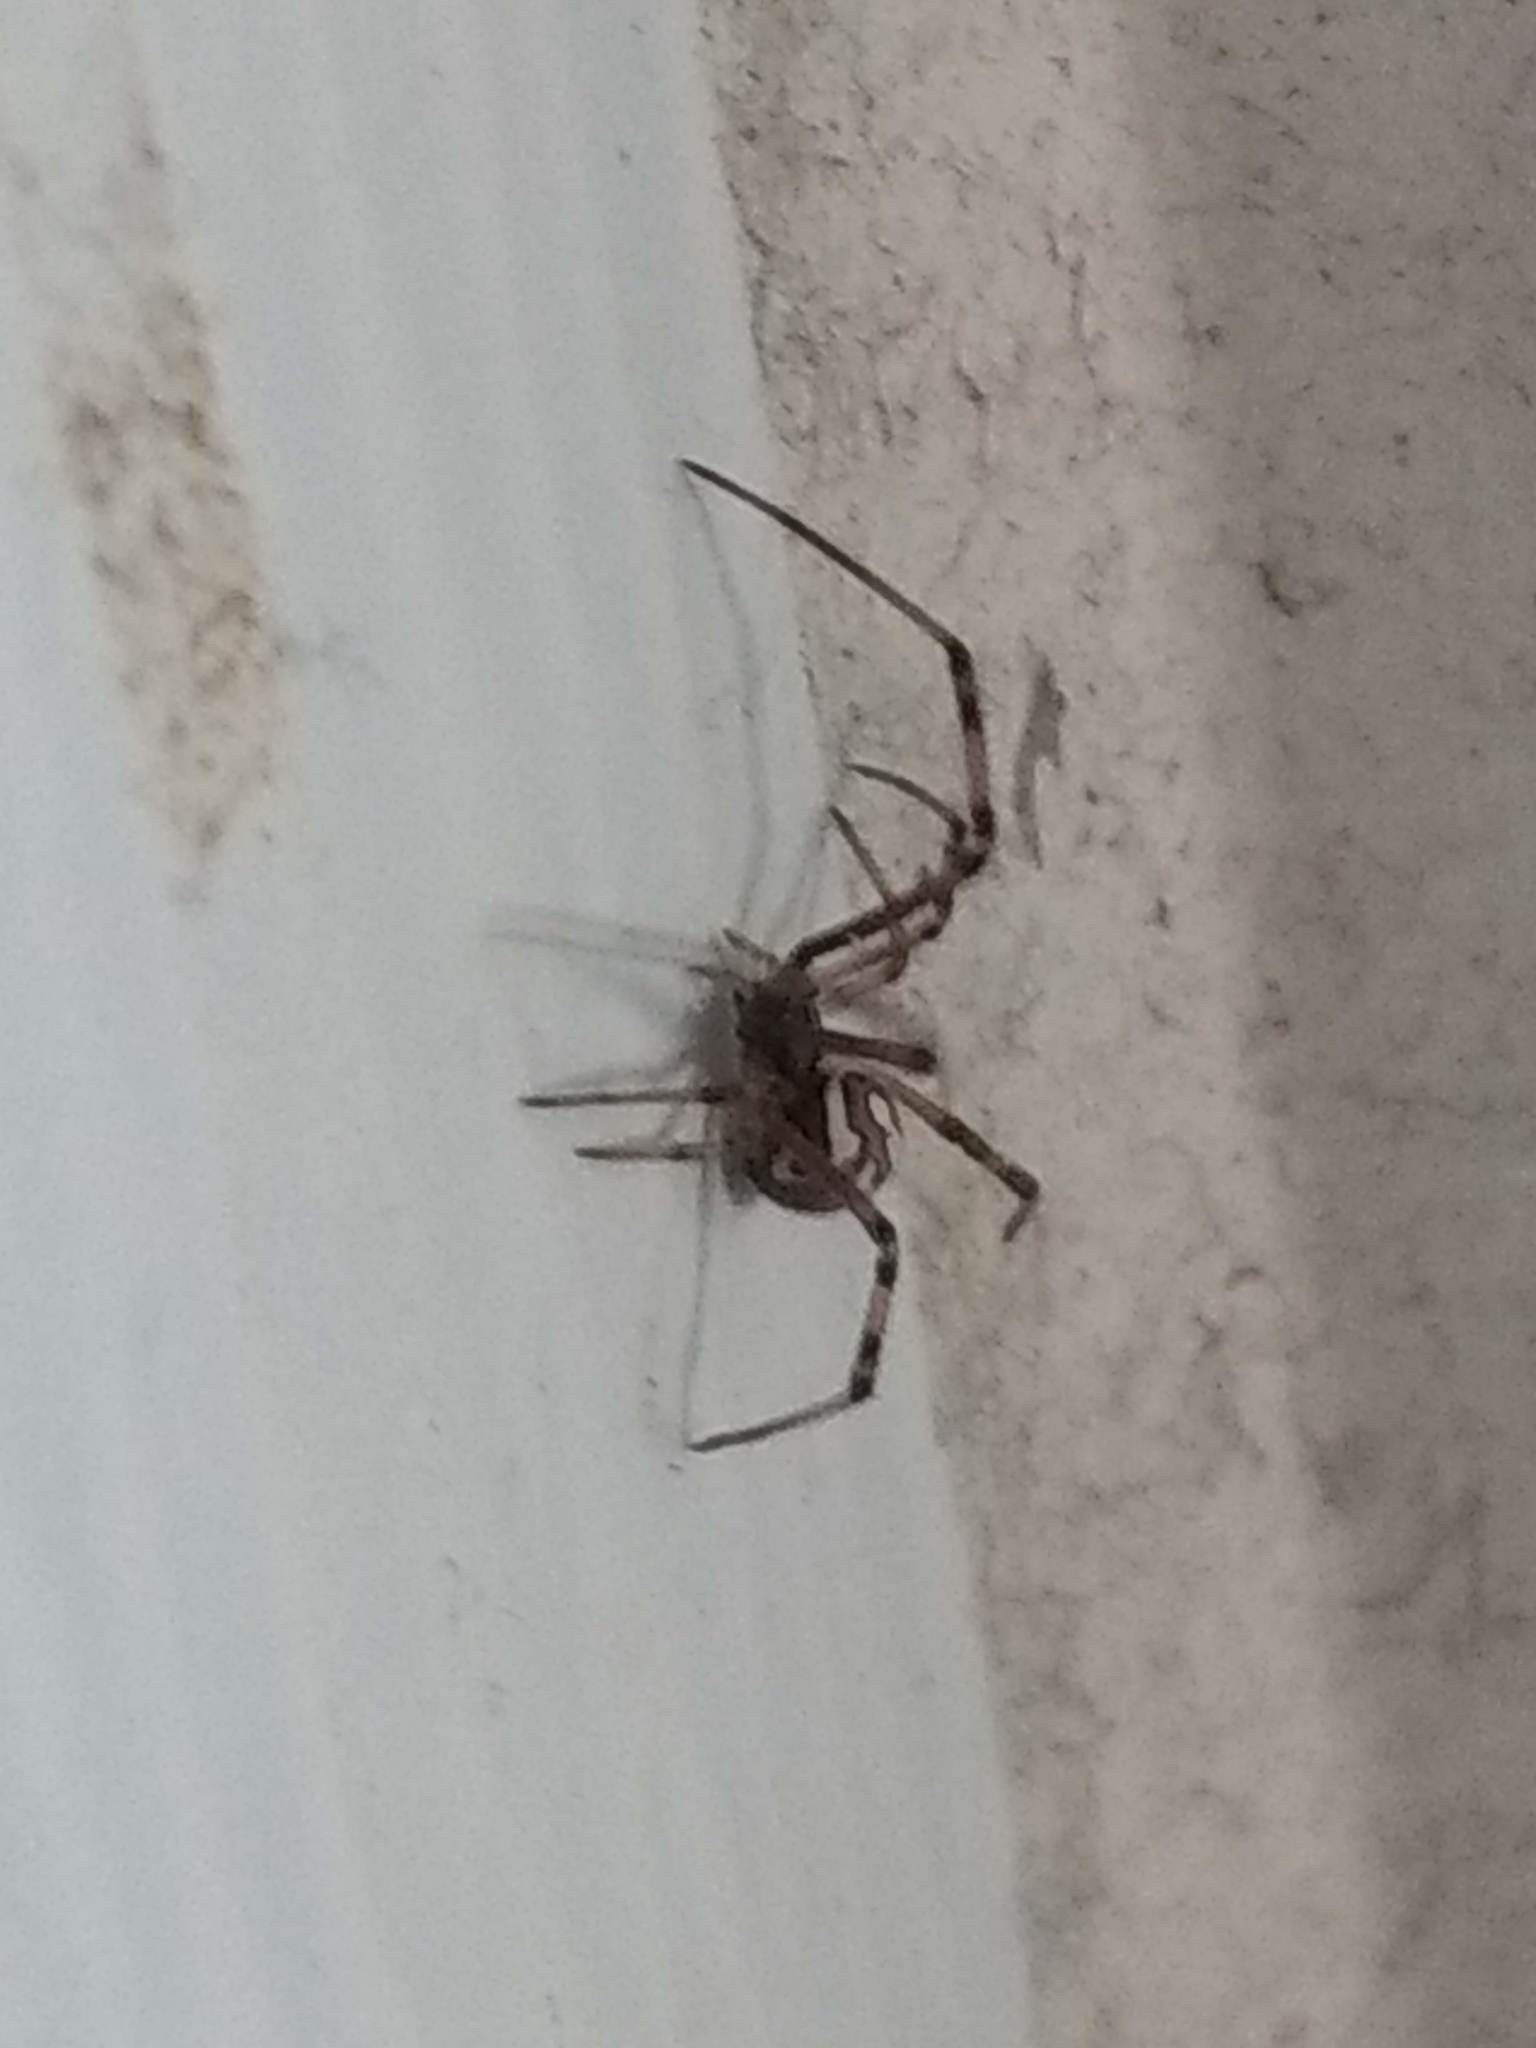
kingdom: Animalia
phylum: Arthropoda
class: Arachnida
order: Araneae
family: Theridiidae
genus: Latrodectus
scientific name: Latrodectus hesperus
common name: Western black widow
